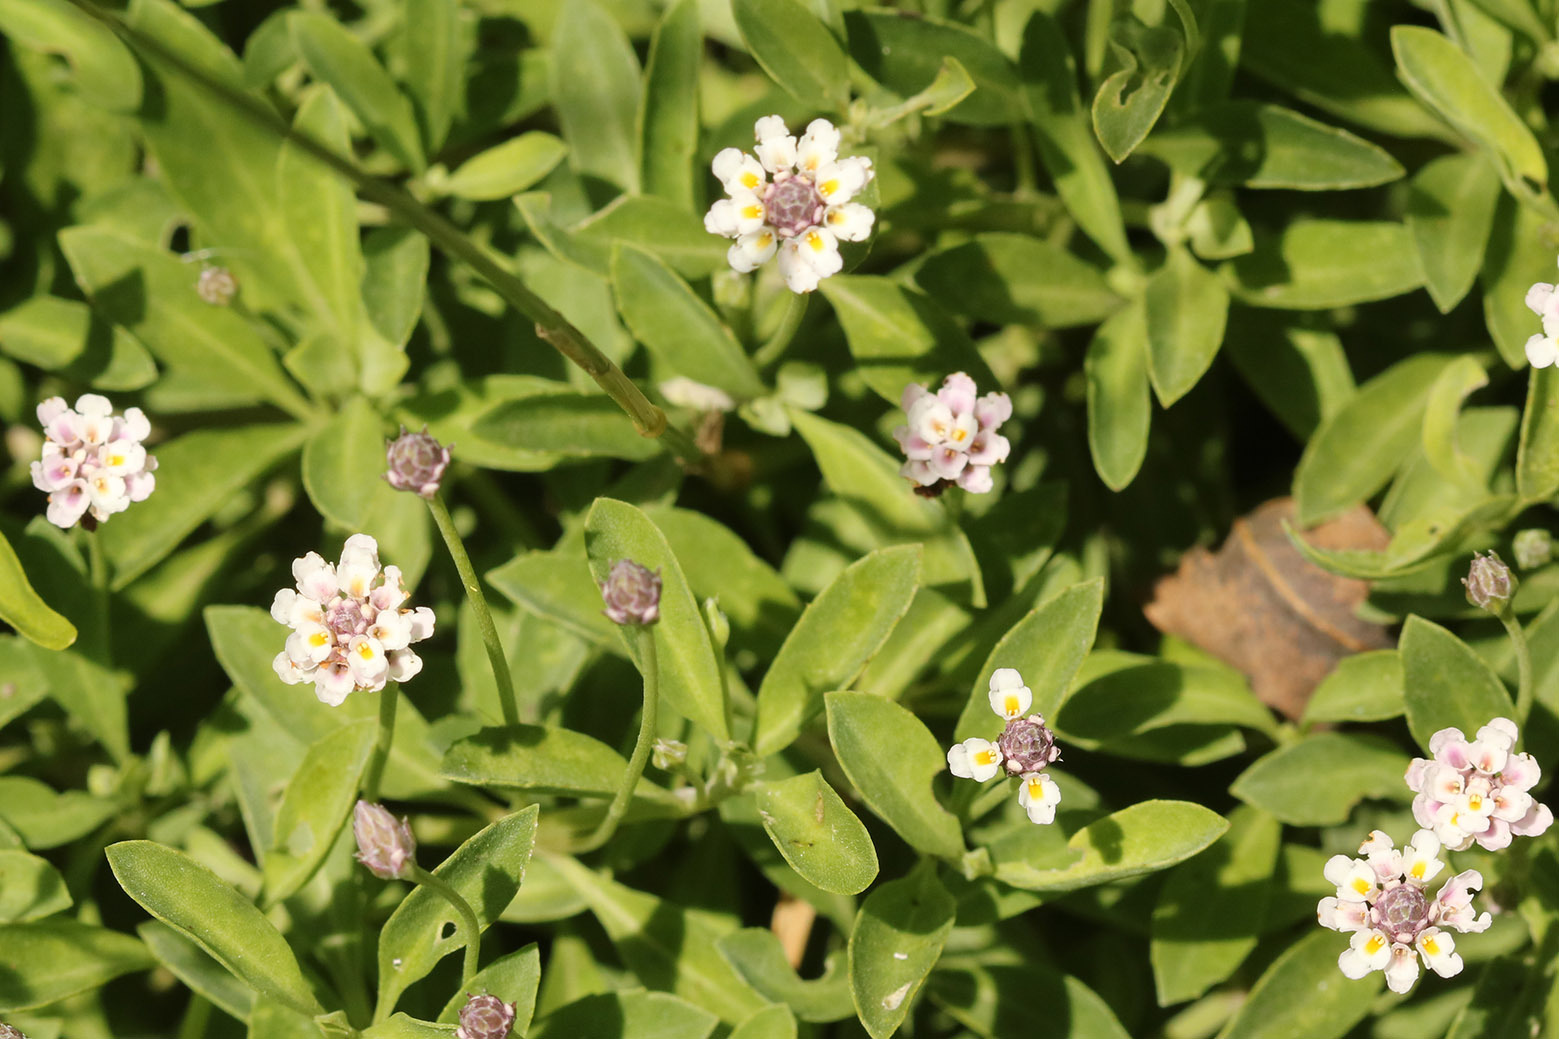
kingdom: Plantae
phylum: Tracheophyta
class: Magnoliopsida
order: Lamiales
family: Verbenaceae
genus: Phyla
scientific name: Phyla nodiflora
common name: Frogfruit
